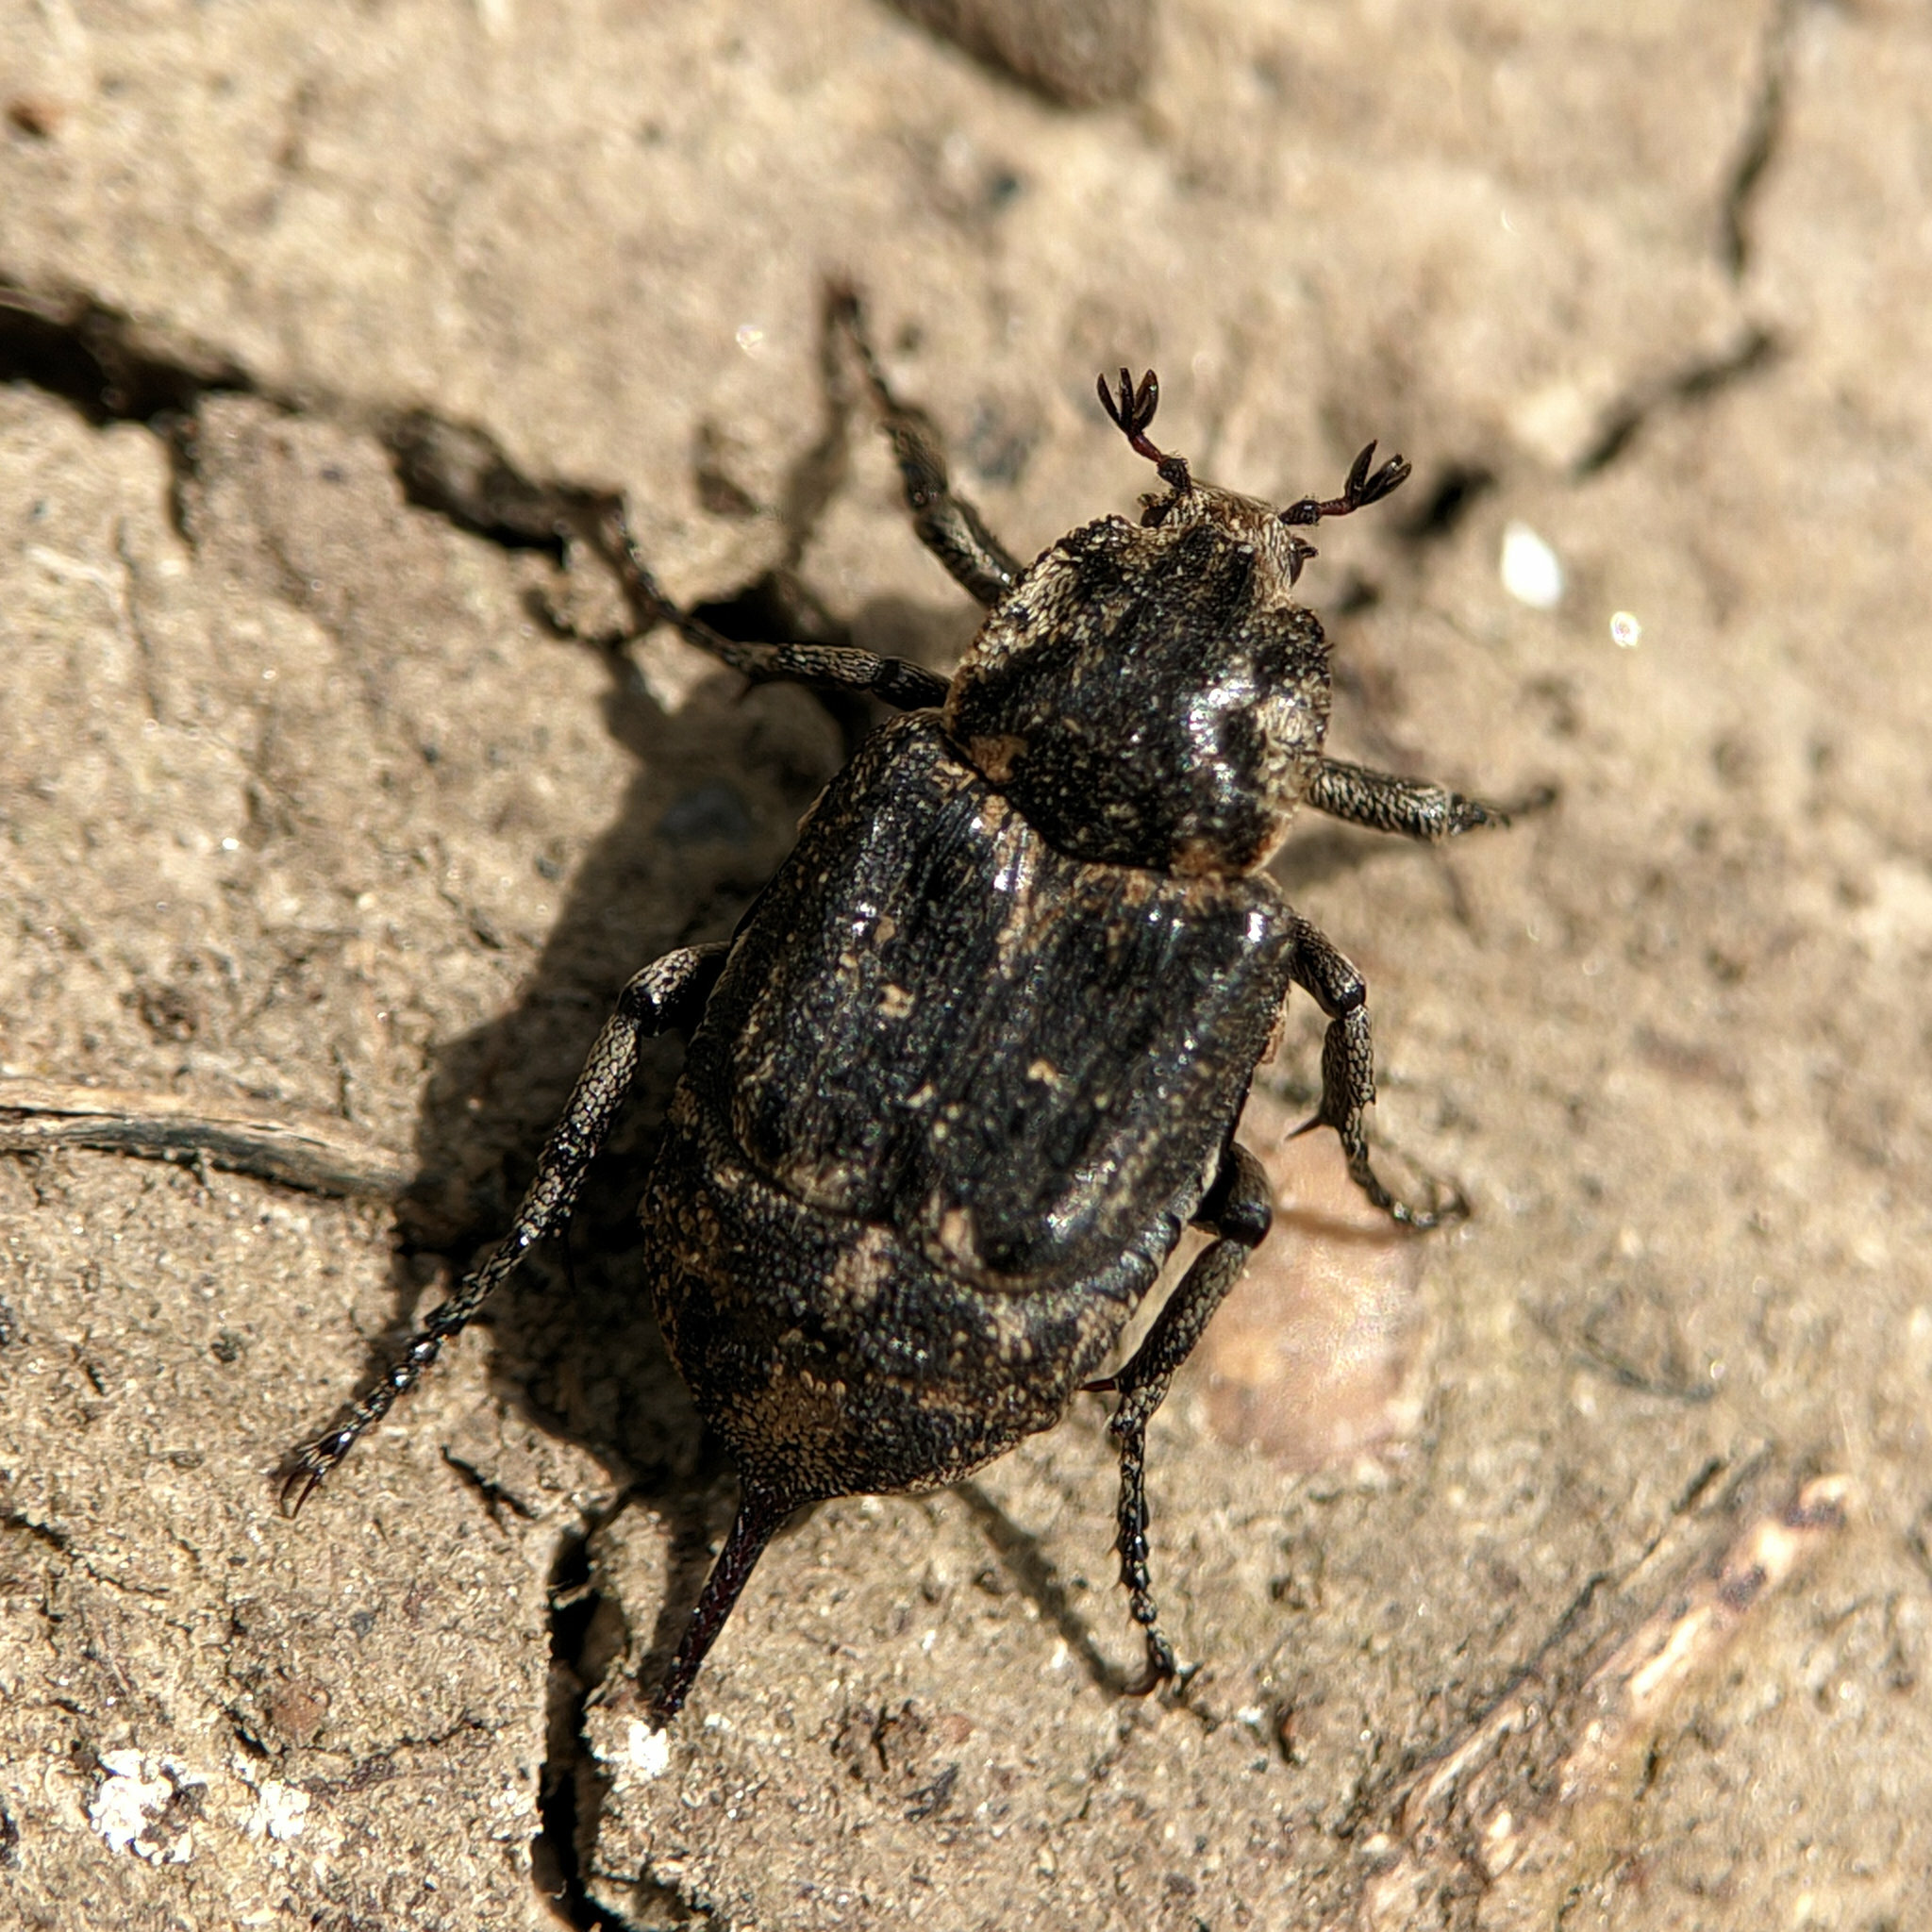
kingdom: Animalia
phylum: Arthropoda
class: Insecta
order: Coleoptera
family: Scarabaeidae
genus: Valgus
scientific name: Valgus hemipterus
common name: Bug flower chafer
